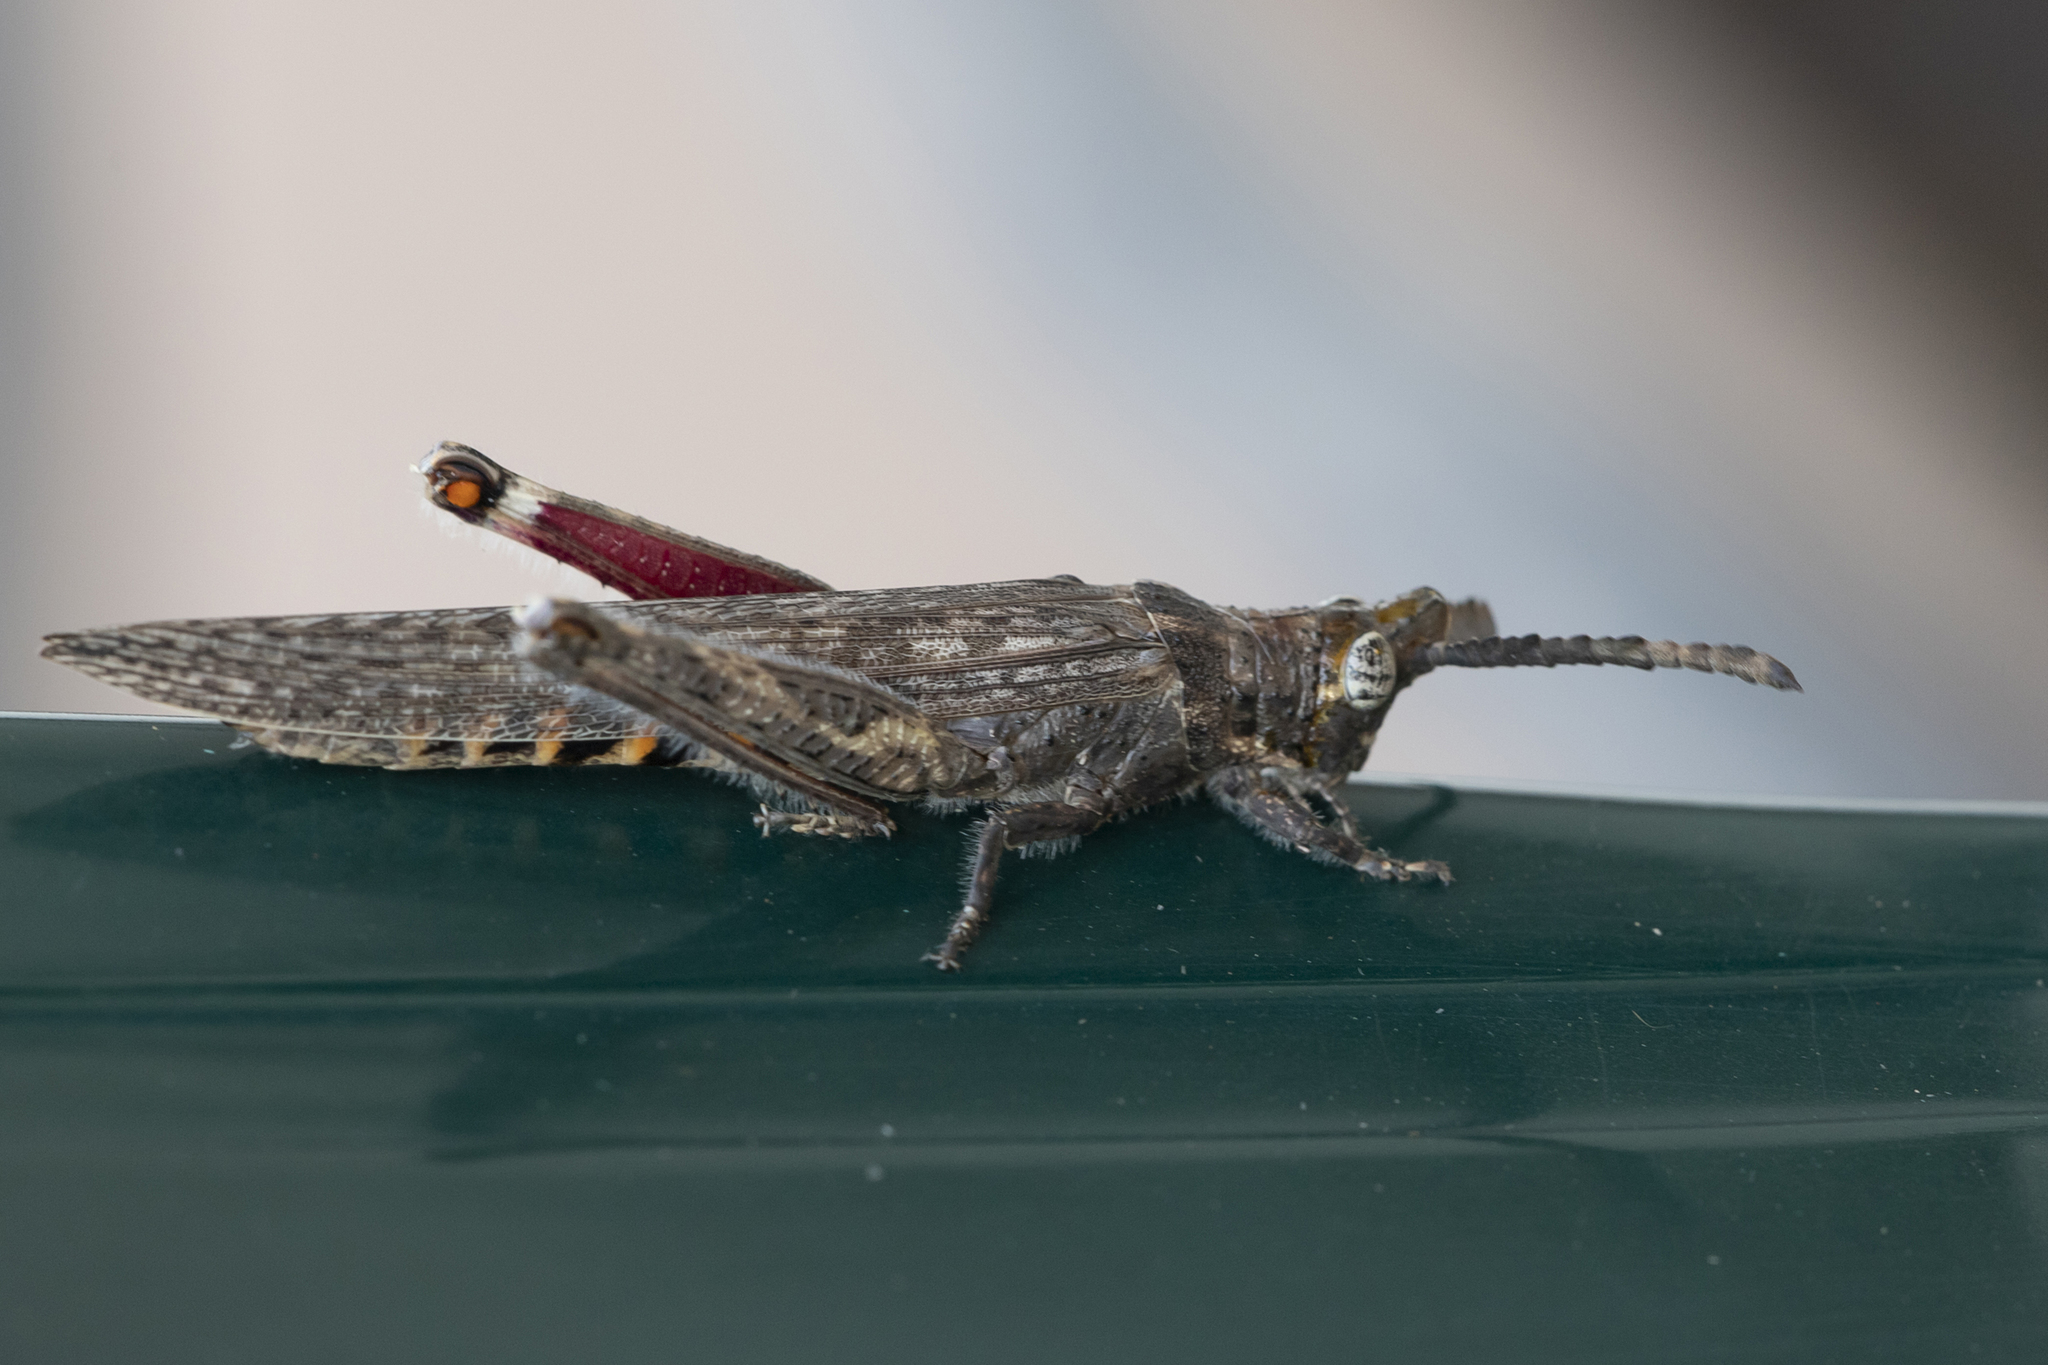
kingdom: Animalia
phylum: Arthropoda
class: Insecta
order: Orthoptera
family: Acrididae
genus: Retuspia
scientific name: Retuspia validicornis
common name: Common retuspia
